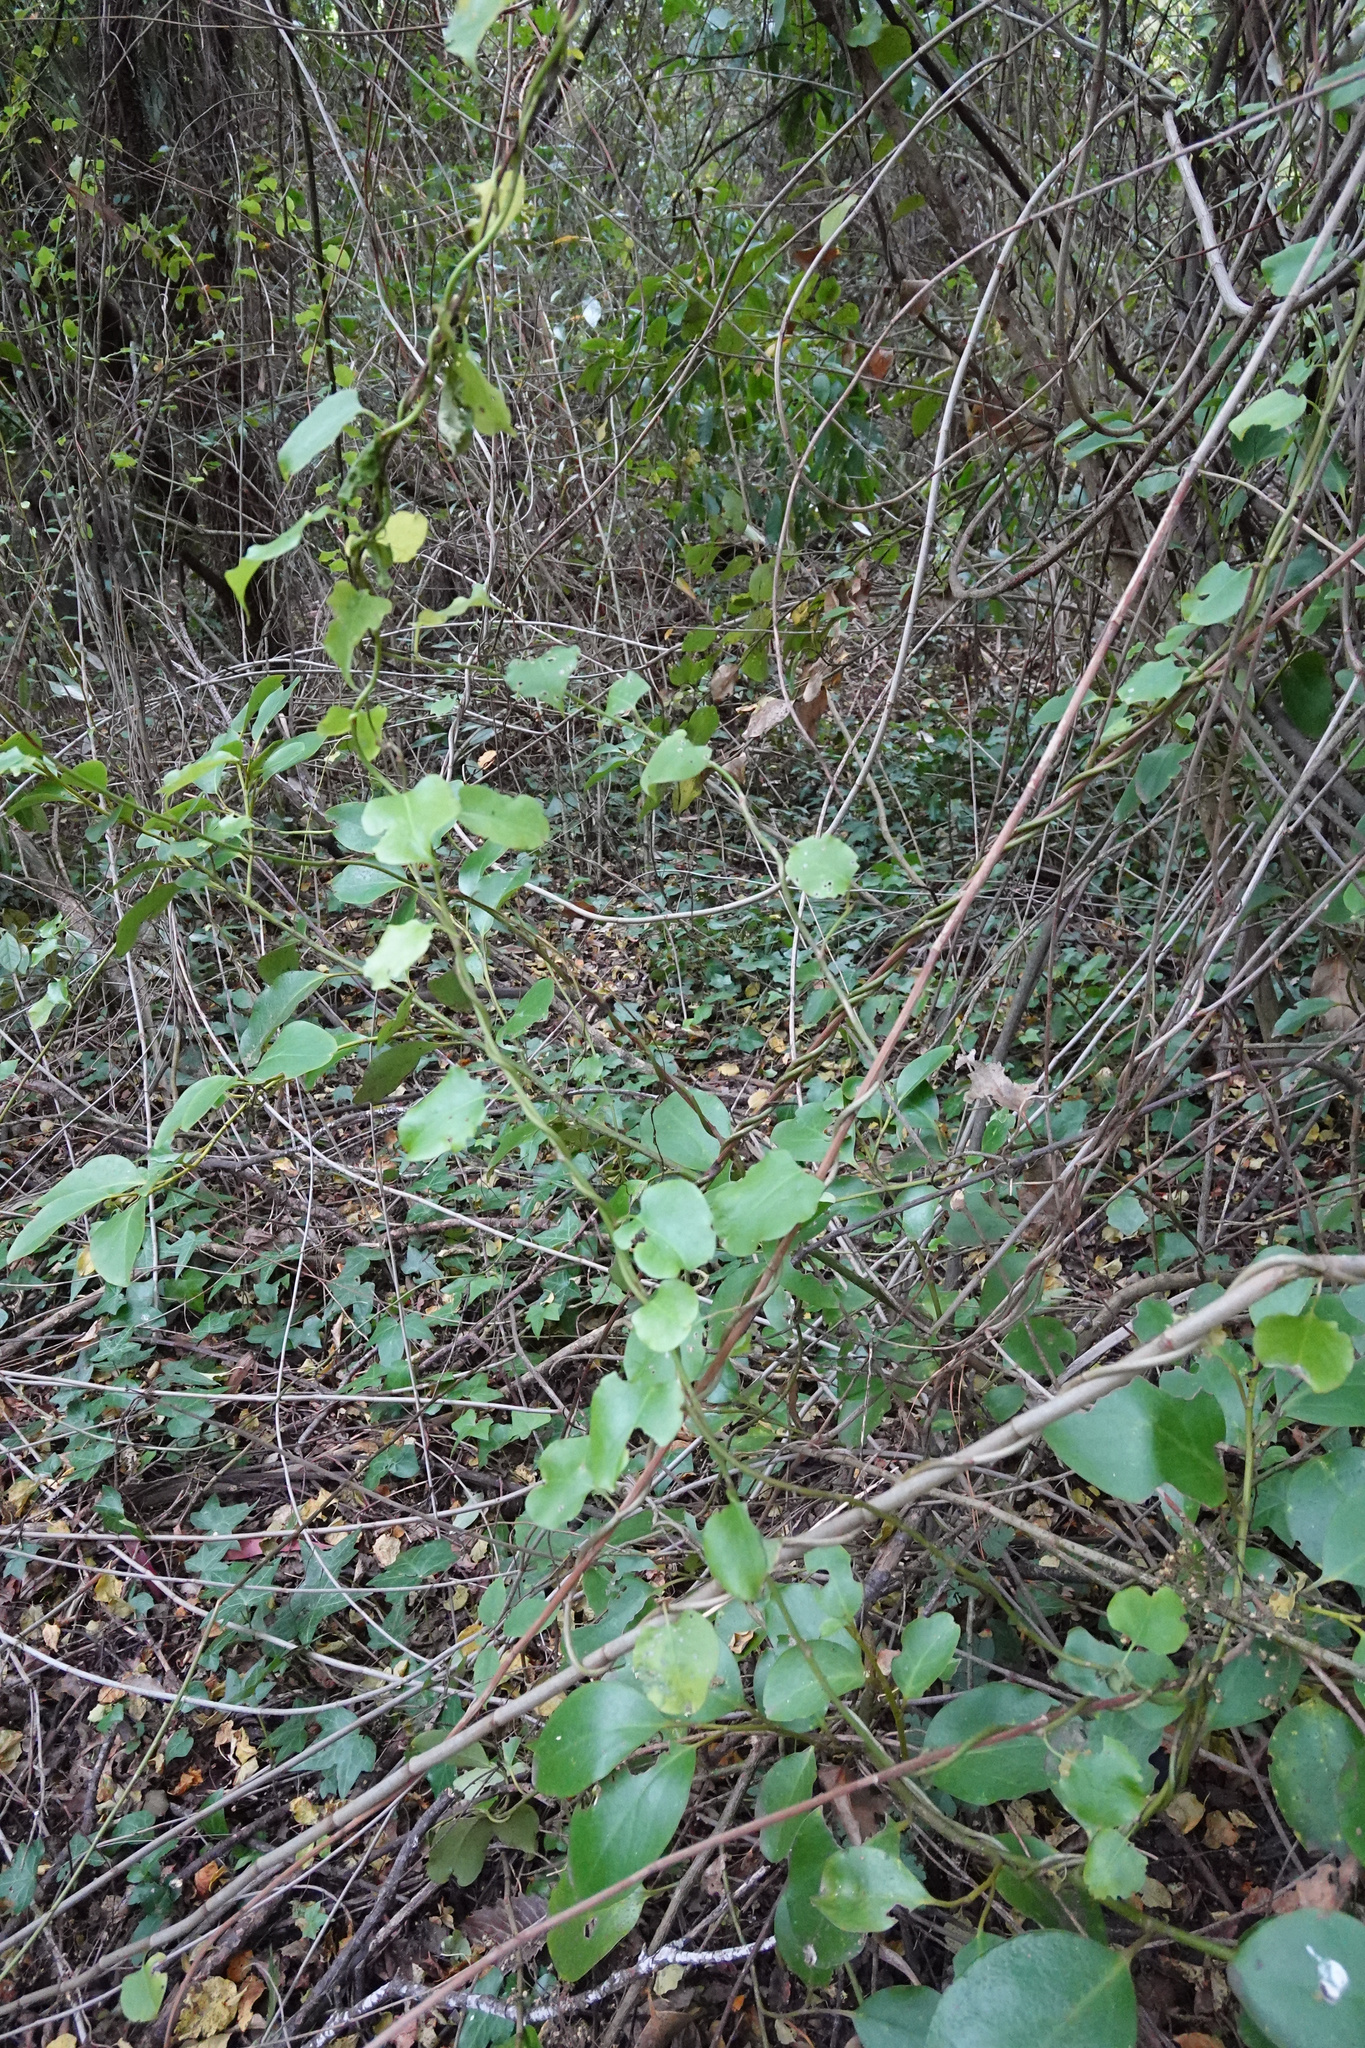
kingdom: Plantae
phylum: Tracheophyta
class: Magnoliopsida
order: Caryophyllales
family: Polygonaceae
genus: Muehlenbeckia
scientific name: Muehlenbeckia australis
